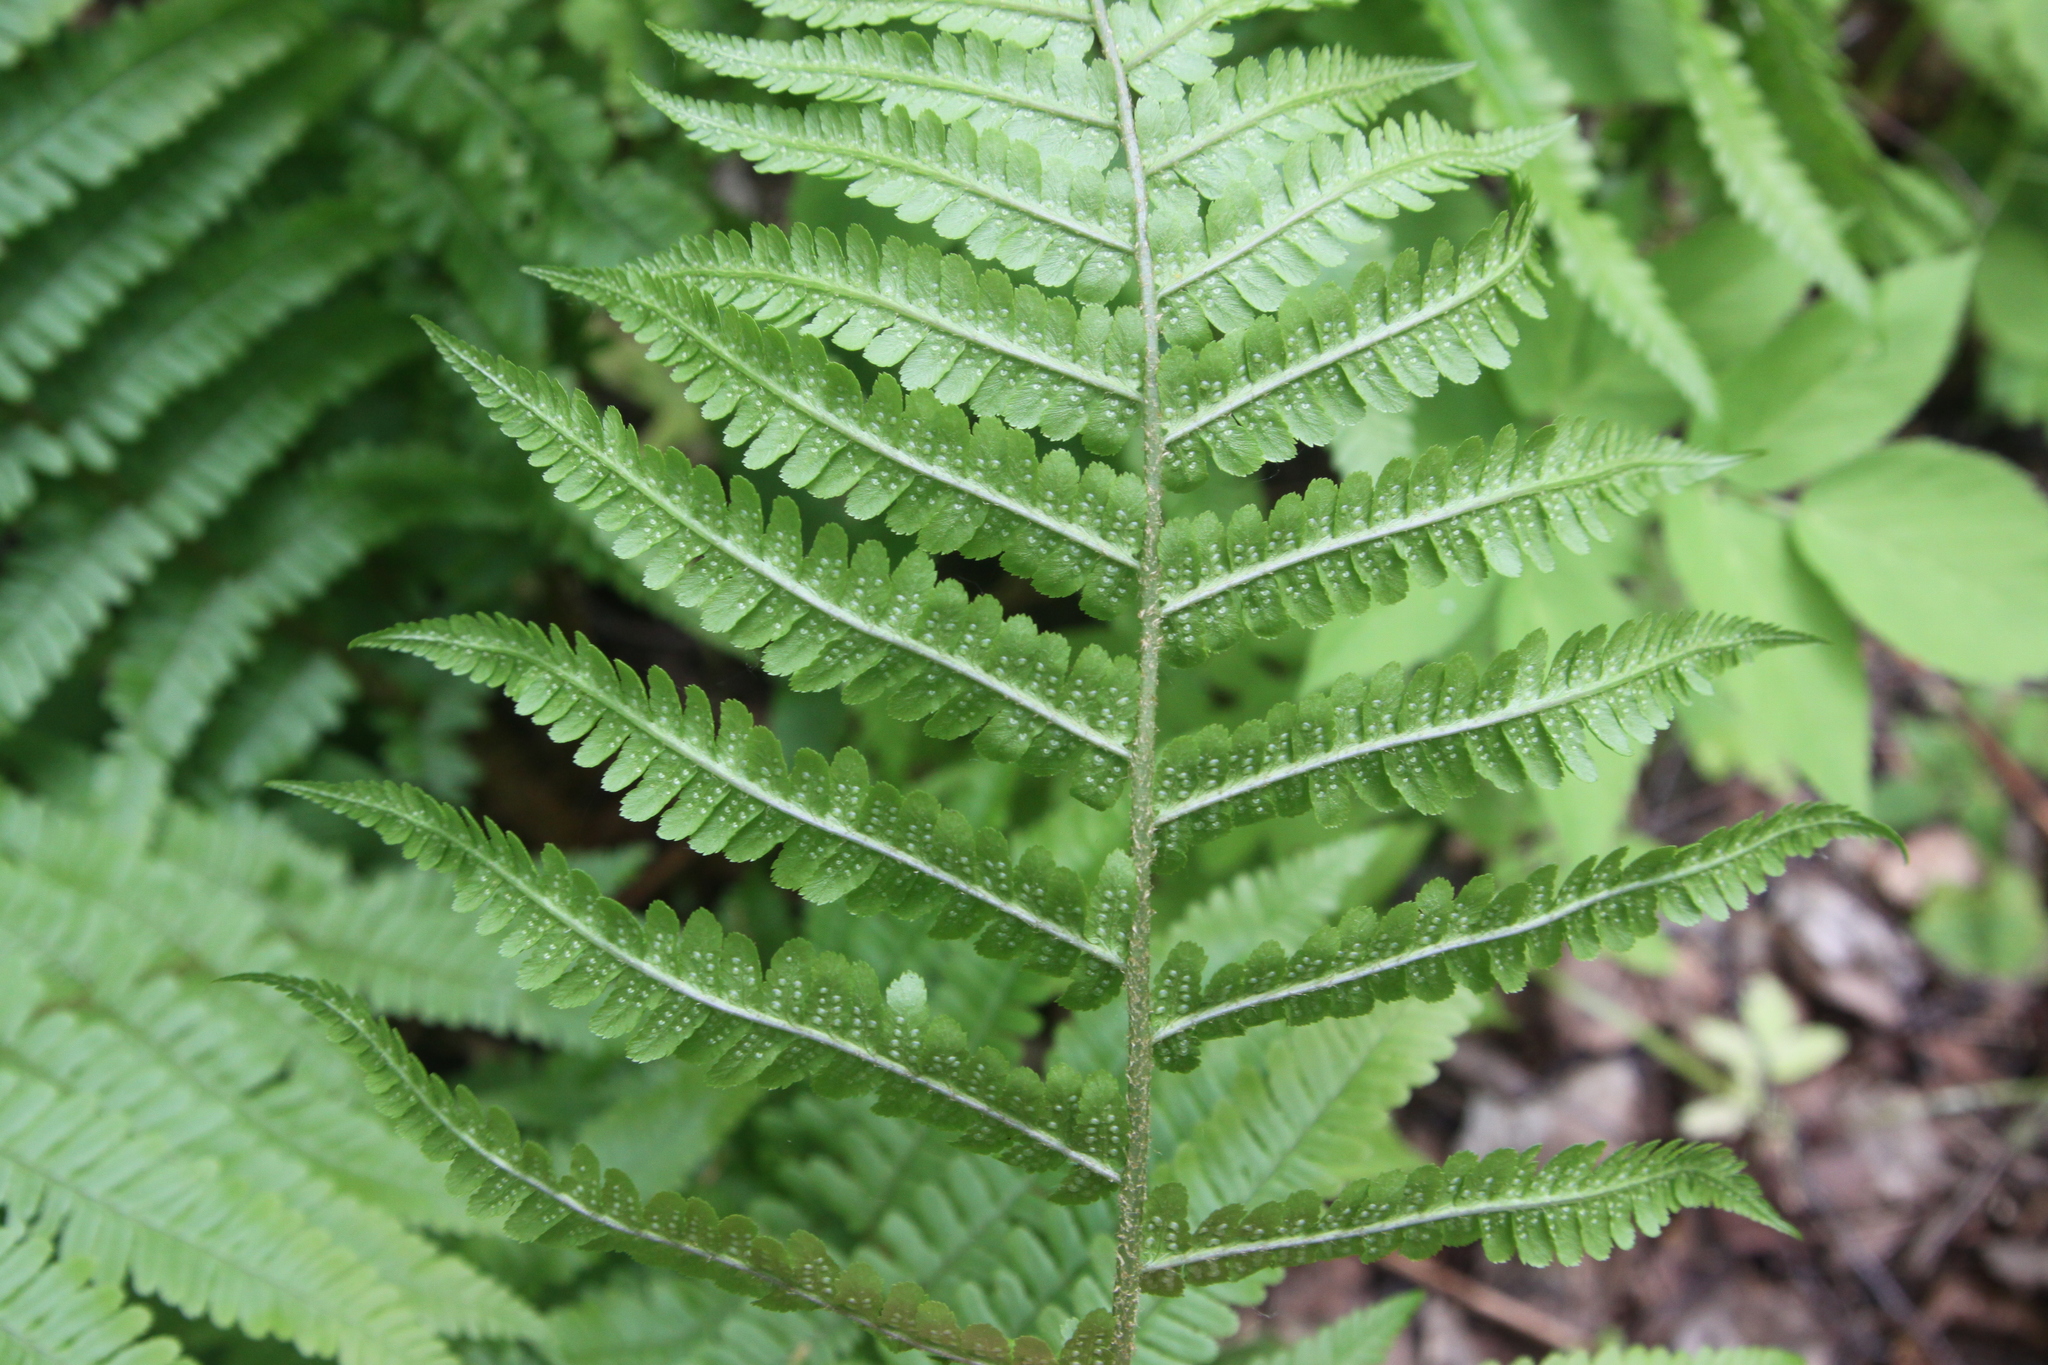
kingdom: Plantae
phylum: Tracheophyta
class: Polypodiopsida
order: Polypodiales
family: Dryopteridaceae
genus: Dryopteris
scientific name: Dryopteris filix-mas
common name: Male fern
